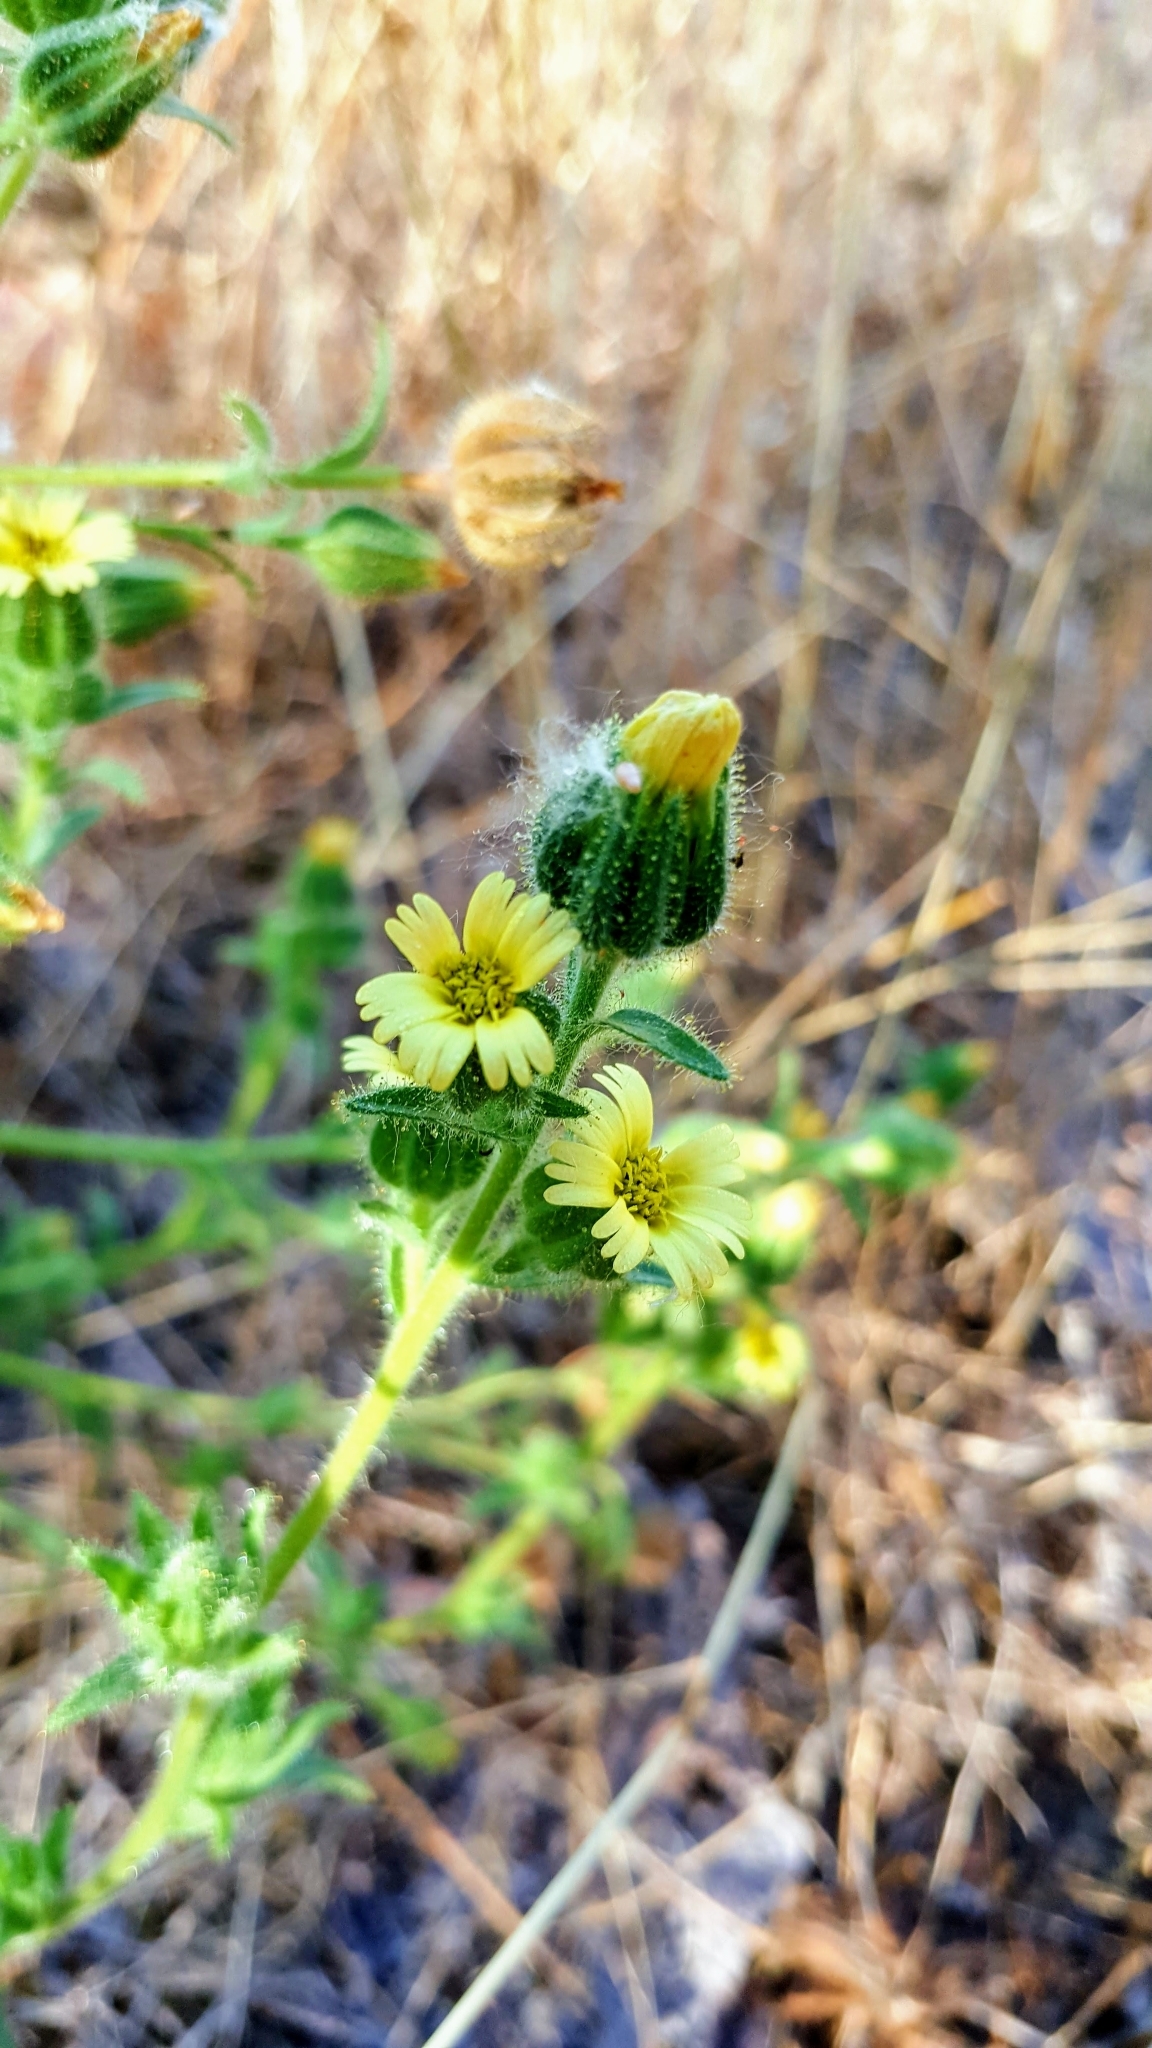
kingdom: Plantae
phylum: Tracheophyta
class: Magnoliopsida
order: Asterales
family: Asteraceae
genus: Madia
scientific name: Madia gracilis
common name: Grassy tarweed
